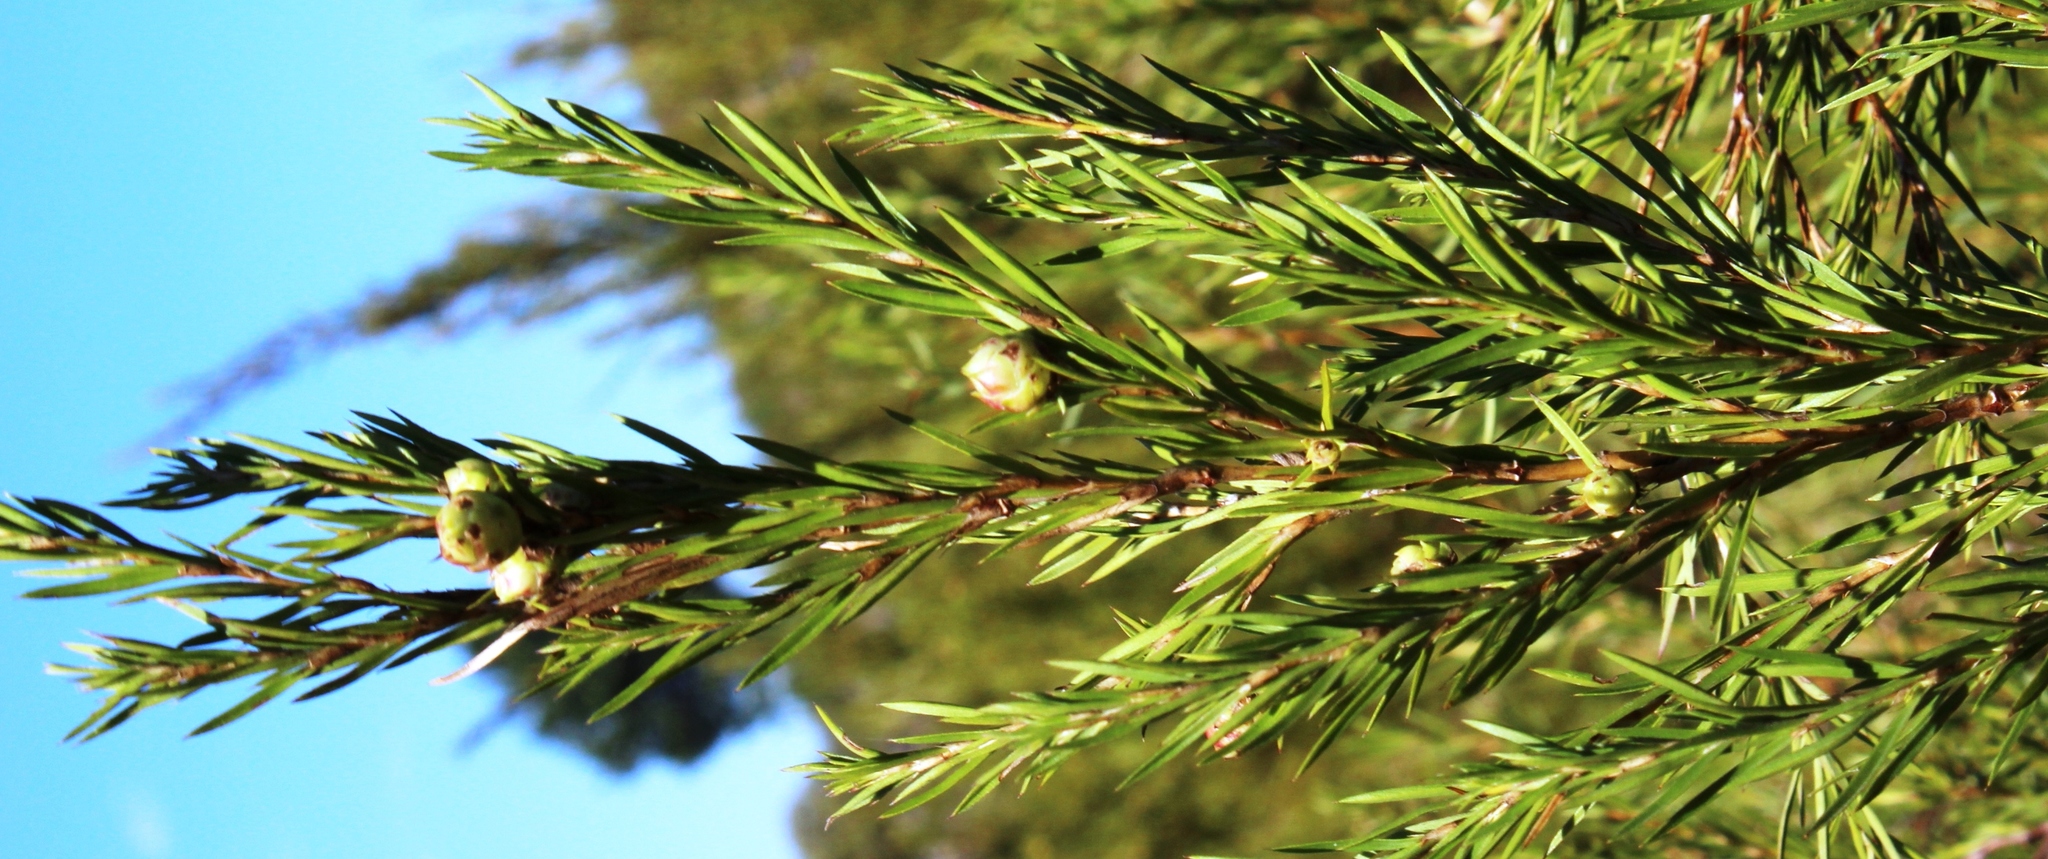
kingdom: Plantae
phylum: Tracheophyta
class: Magnoliopsida
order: Rosales
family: Rosaceae
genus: Cliffortia
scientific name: Cliffortia strobilifera
